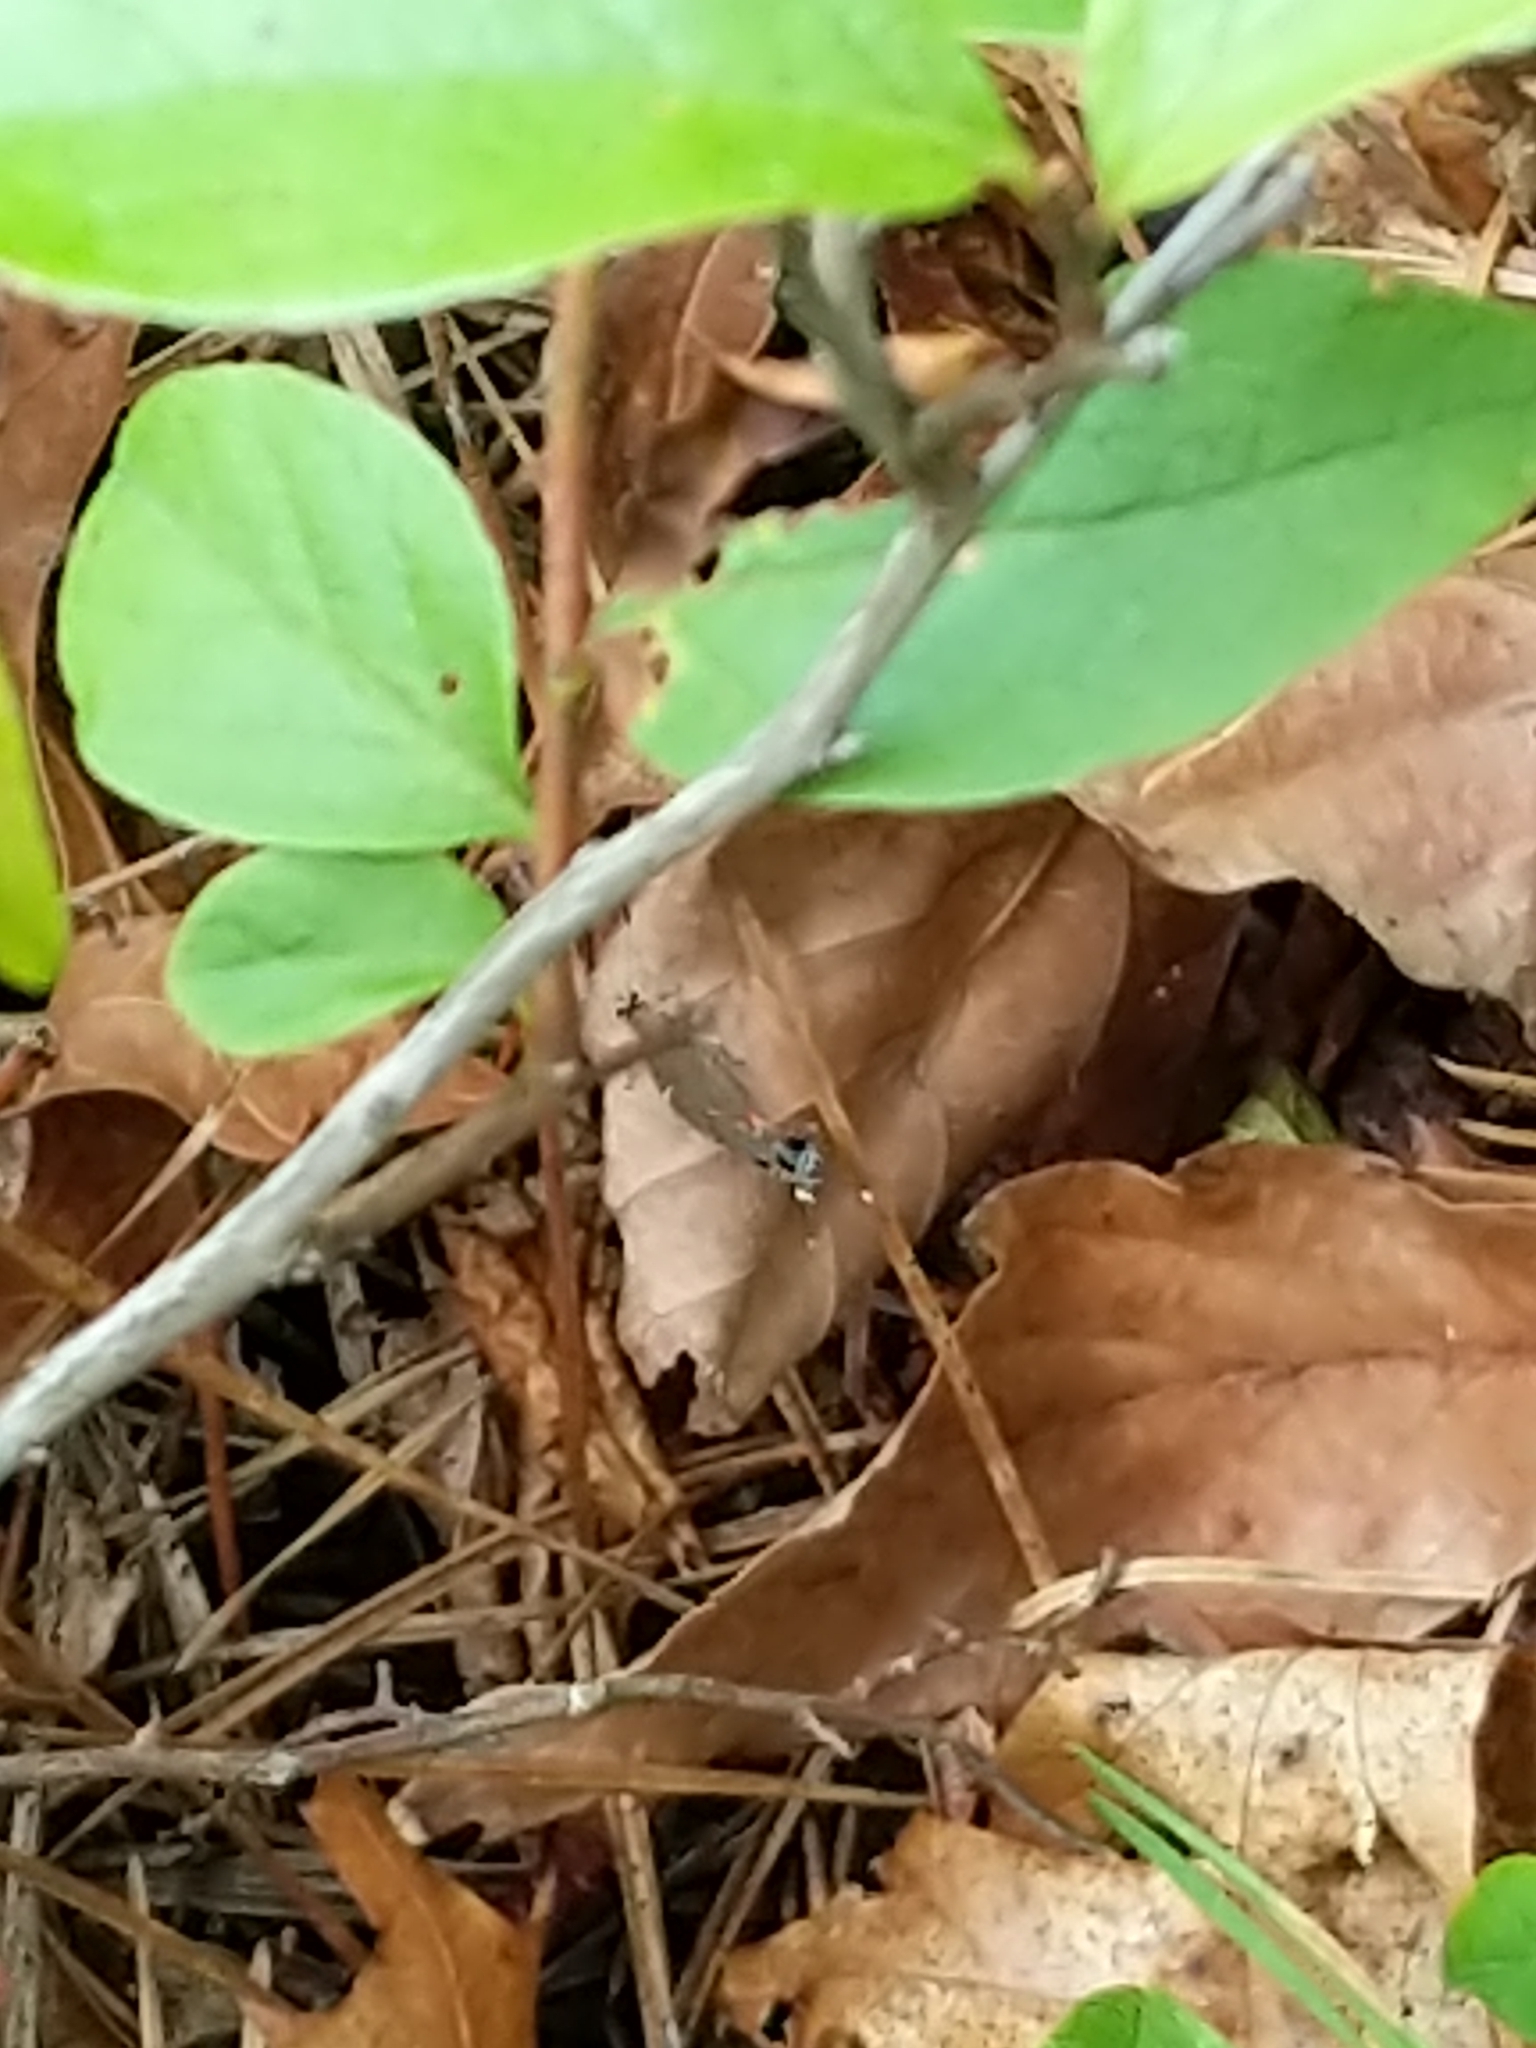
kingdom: Animalia
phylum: Arthropoda
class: Insecta
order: Lepidoptera
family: Lycaenidae
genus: Calycopis
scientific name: Calycopis cecrops
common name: Red-banded hairstreak
